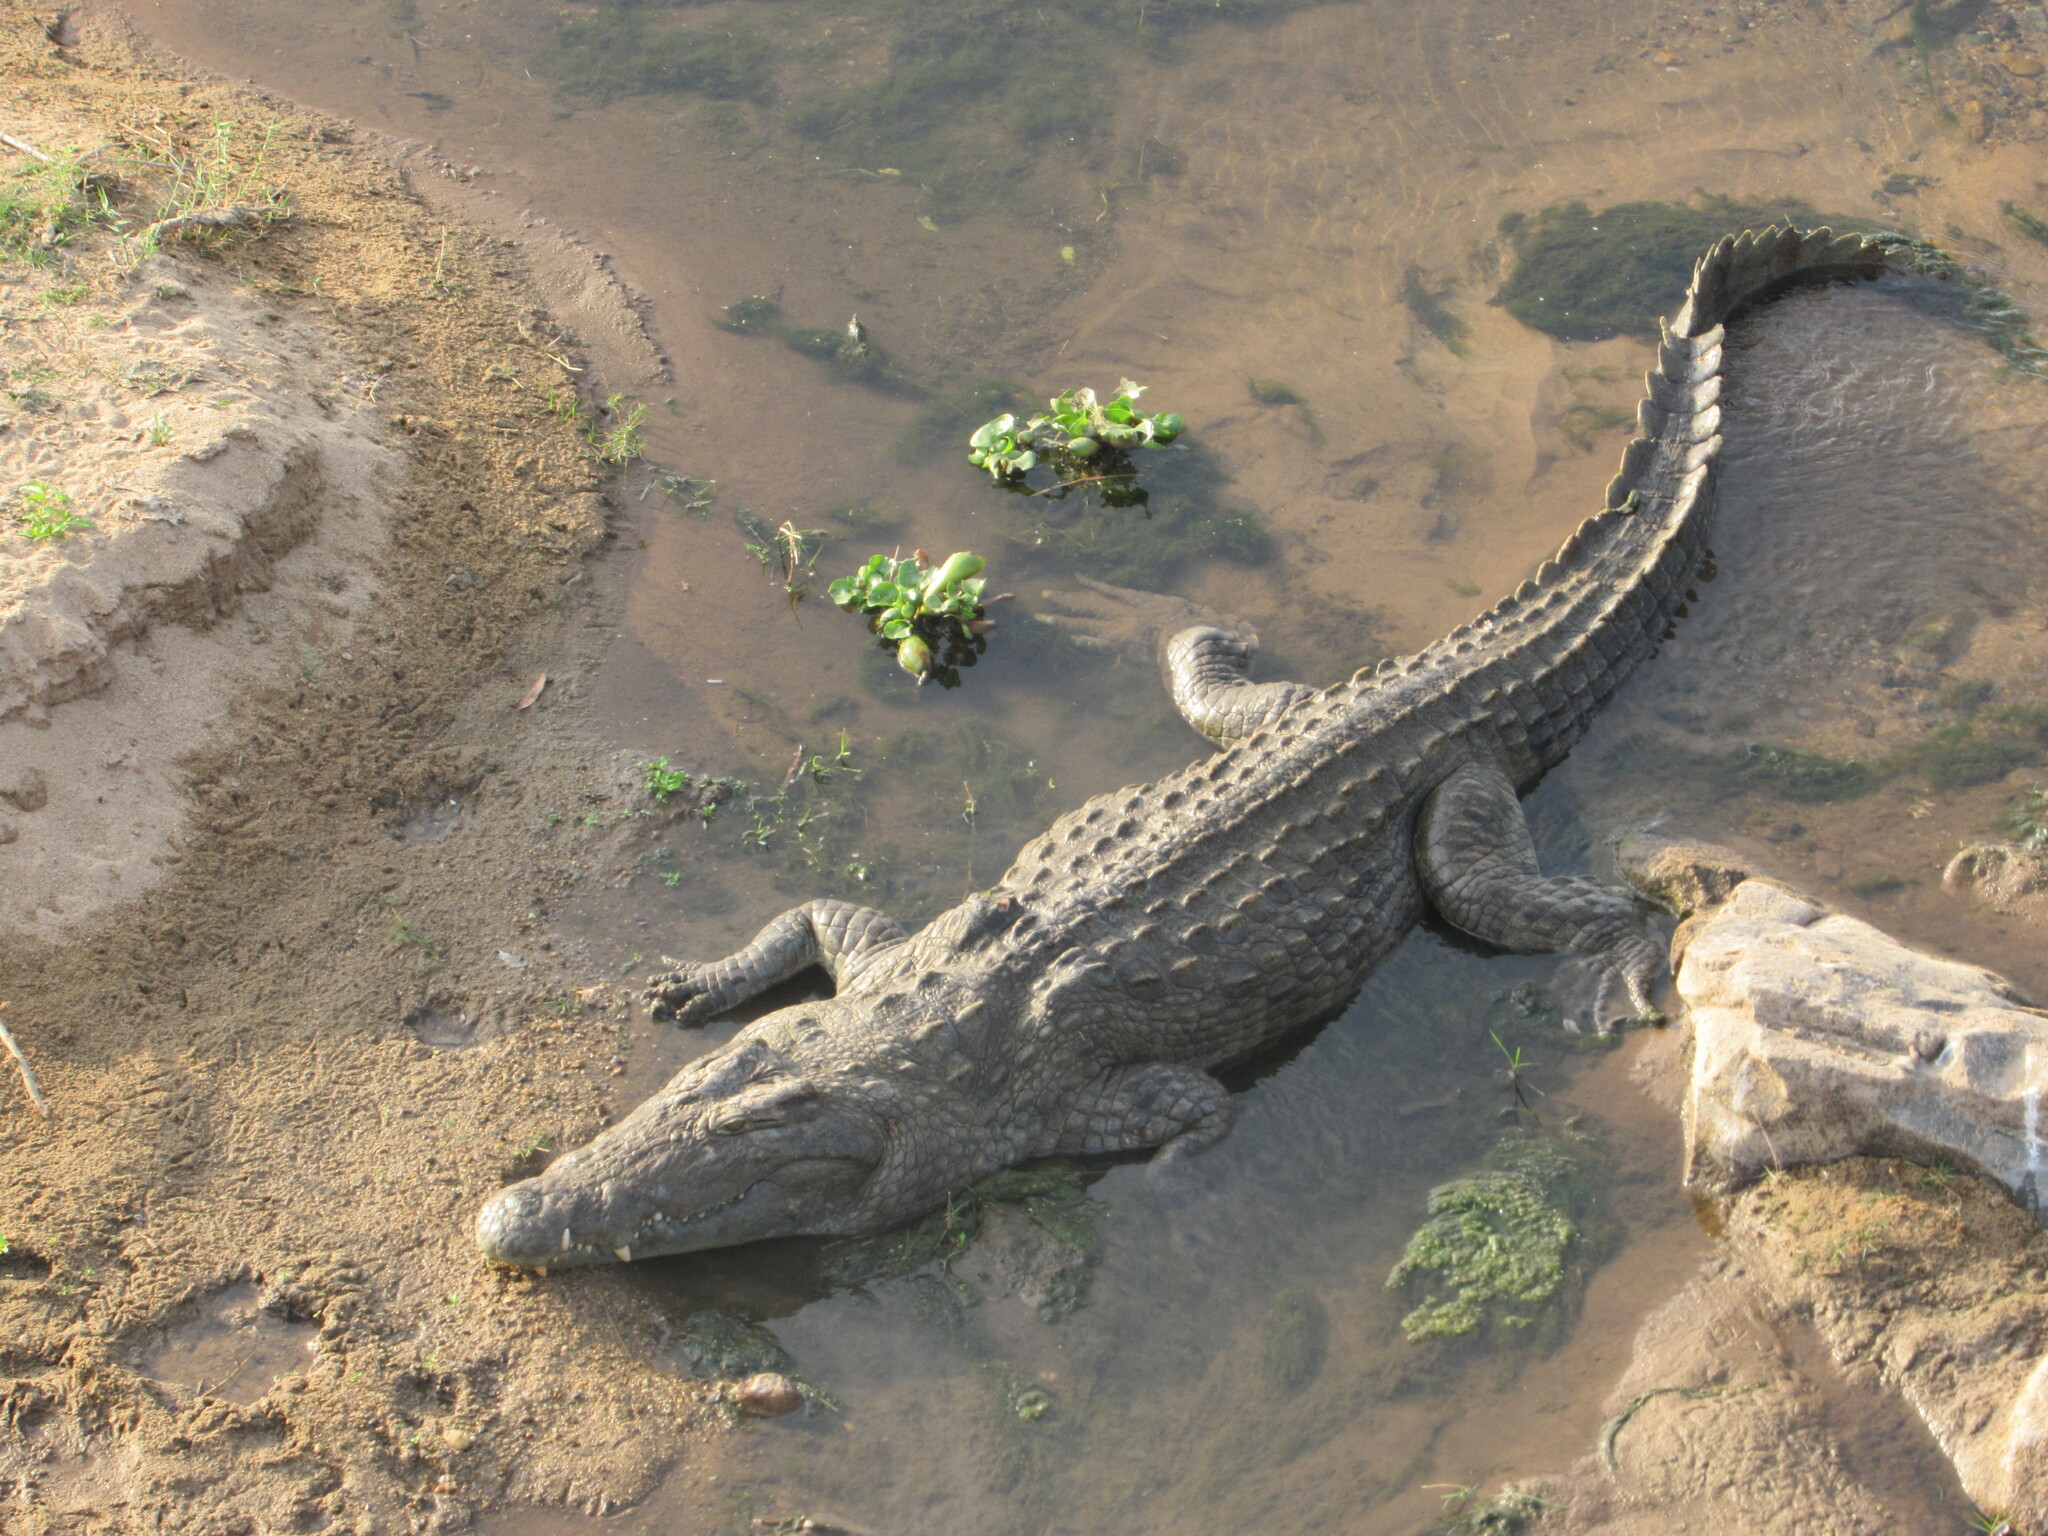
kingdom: Animalia
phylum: Chordata
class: Crocodylia
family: Crocodylidae
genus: Crocodylus
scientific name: Crocodylus niloticus
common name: Nile crocodile
